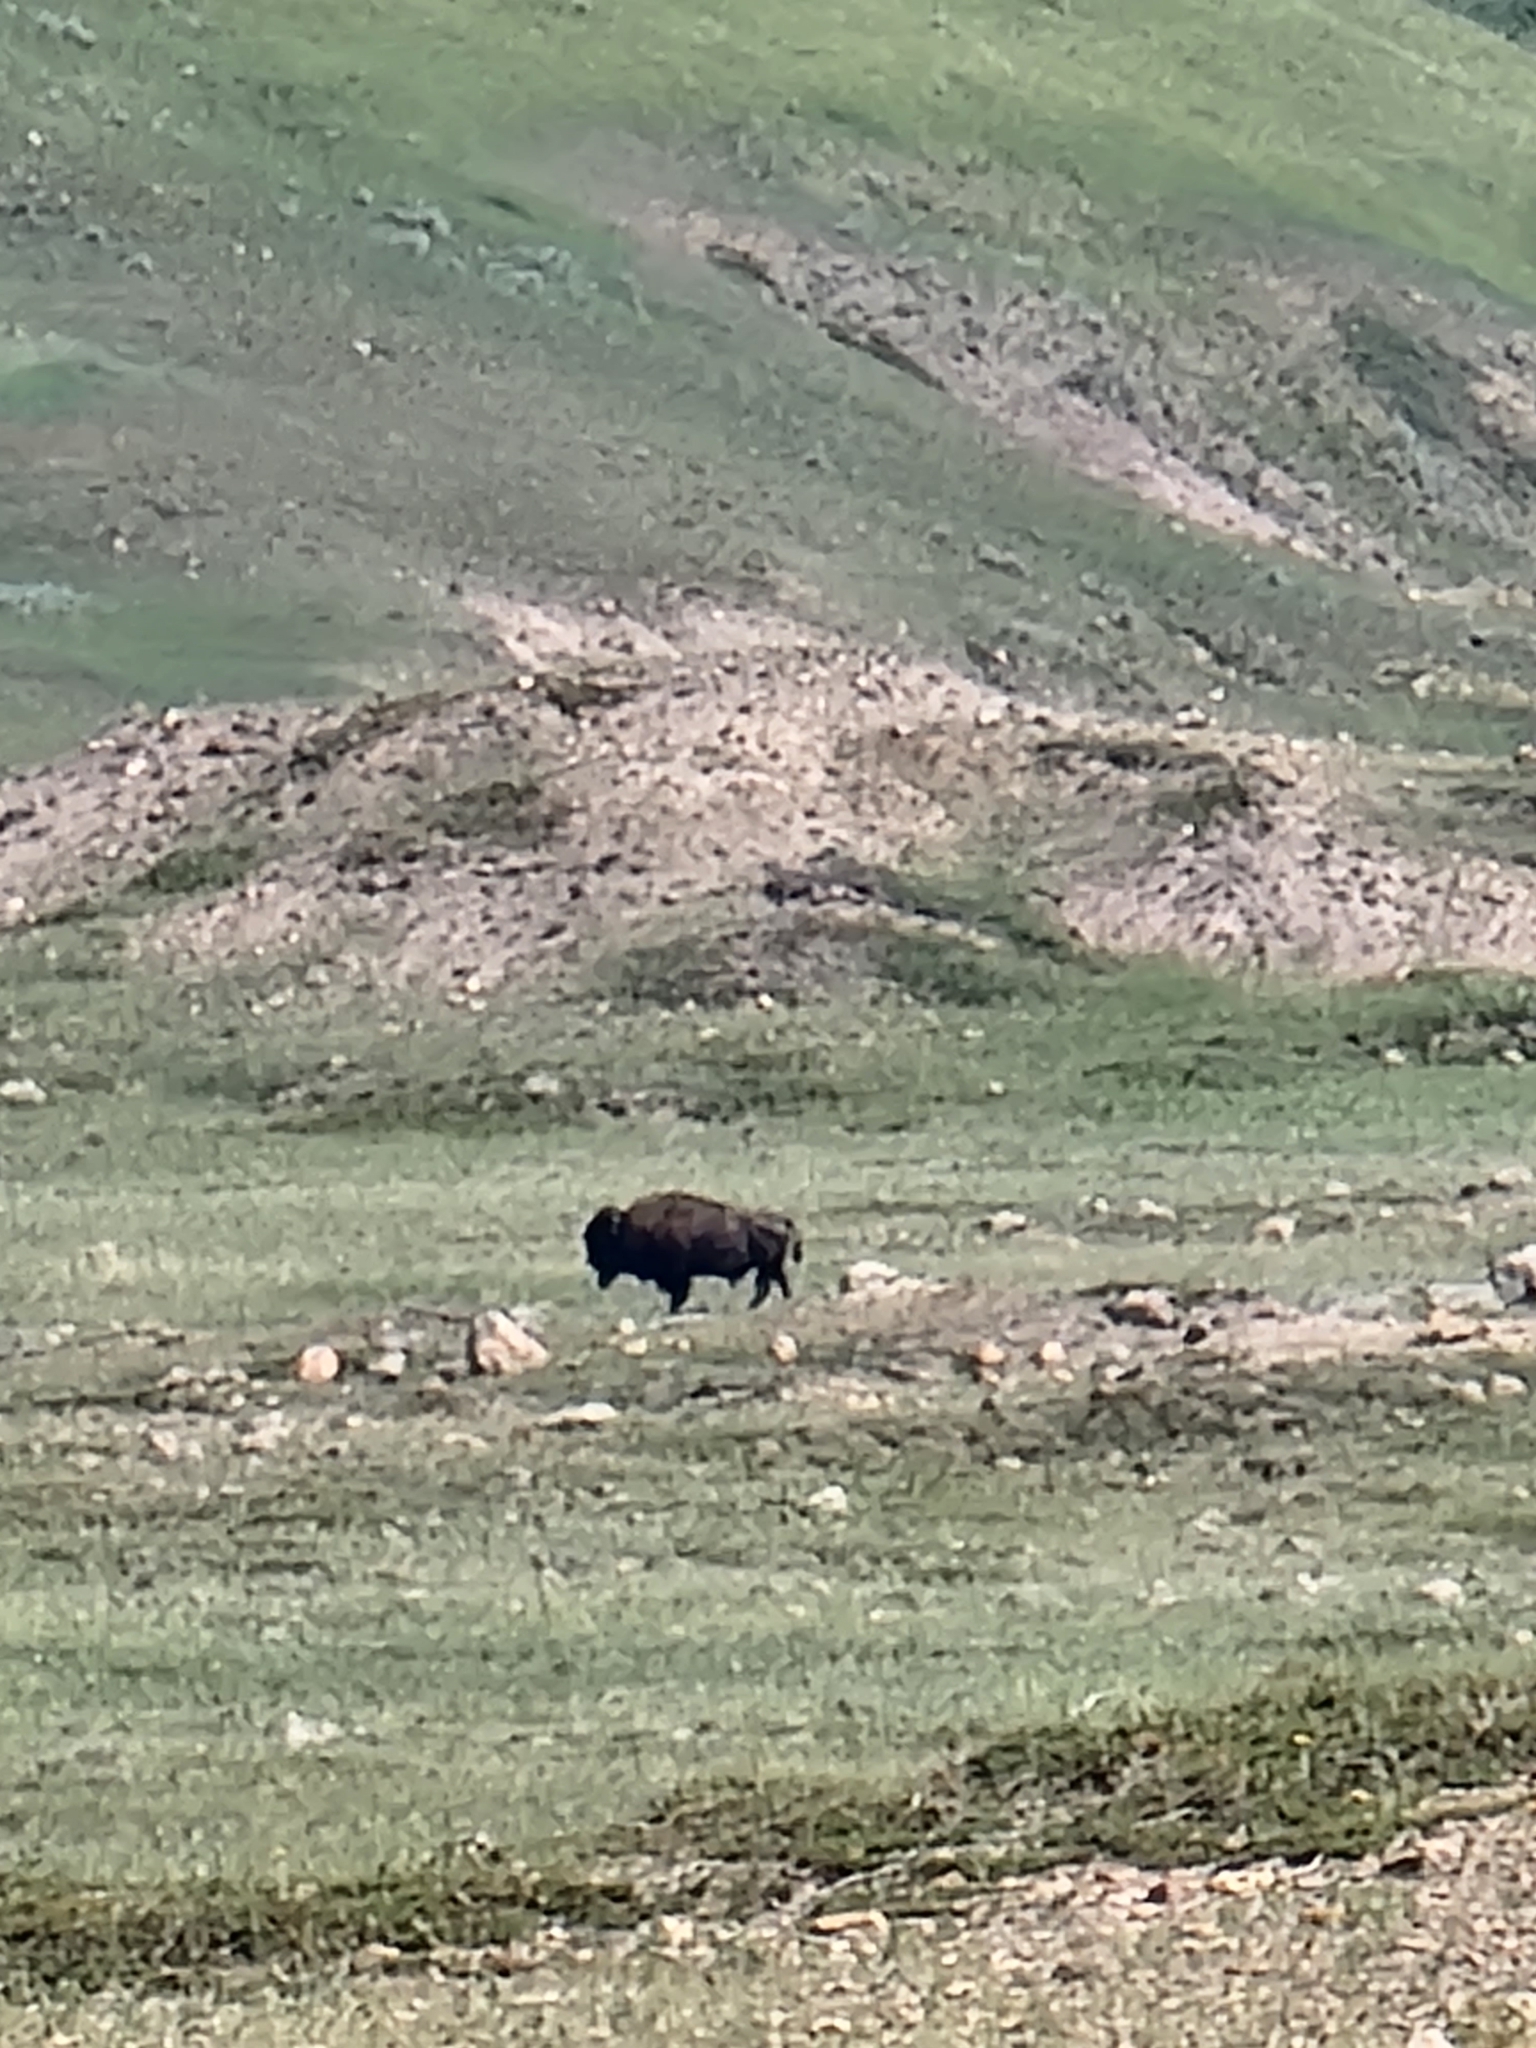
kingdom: Animalia
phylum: Chordata
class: Mammalia
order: Artiodactyla
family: Bovidae
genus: Bison
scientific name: Bison bison
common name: American bison
